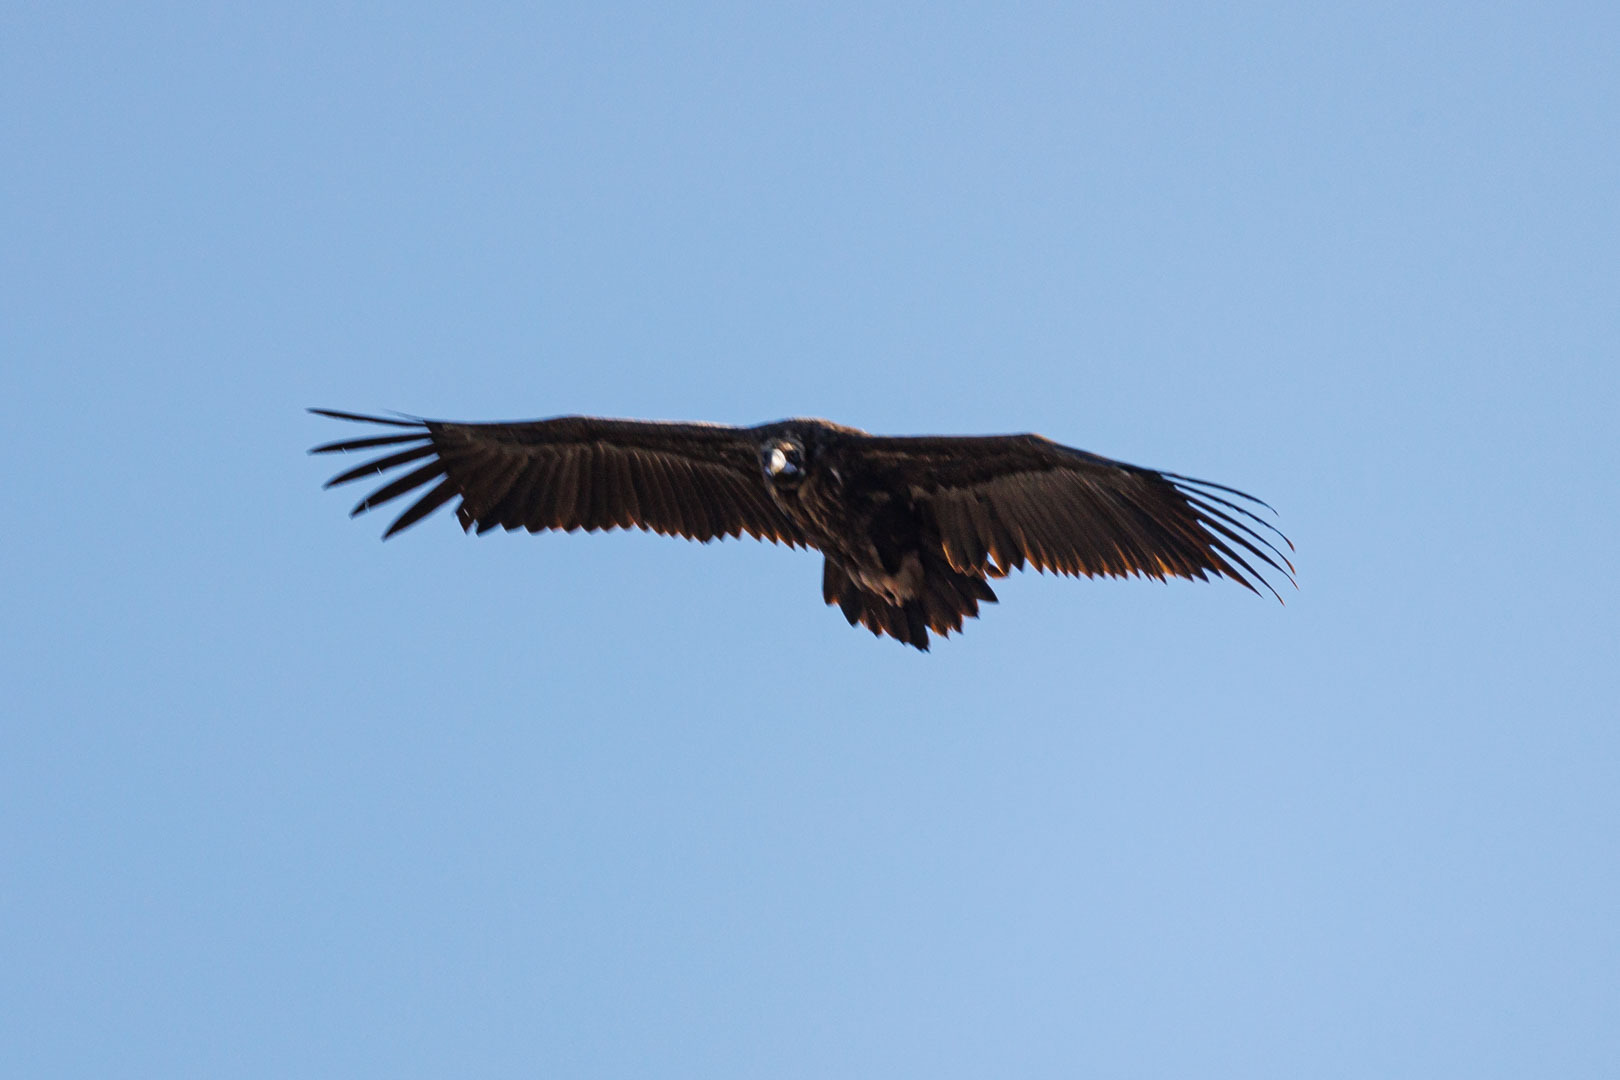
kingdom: Animalia
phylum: Chordata
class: Aves
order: Accipitriformes
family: Accipitridae
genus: Aegypius
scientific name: Aegypius monachus
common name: Cinereous vulture
